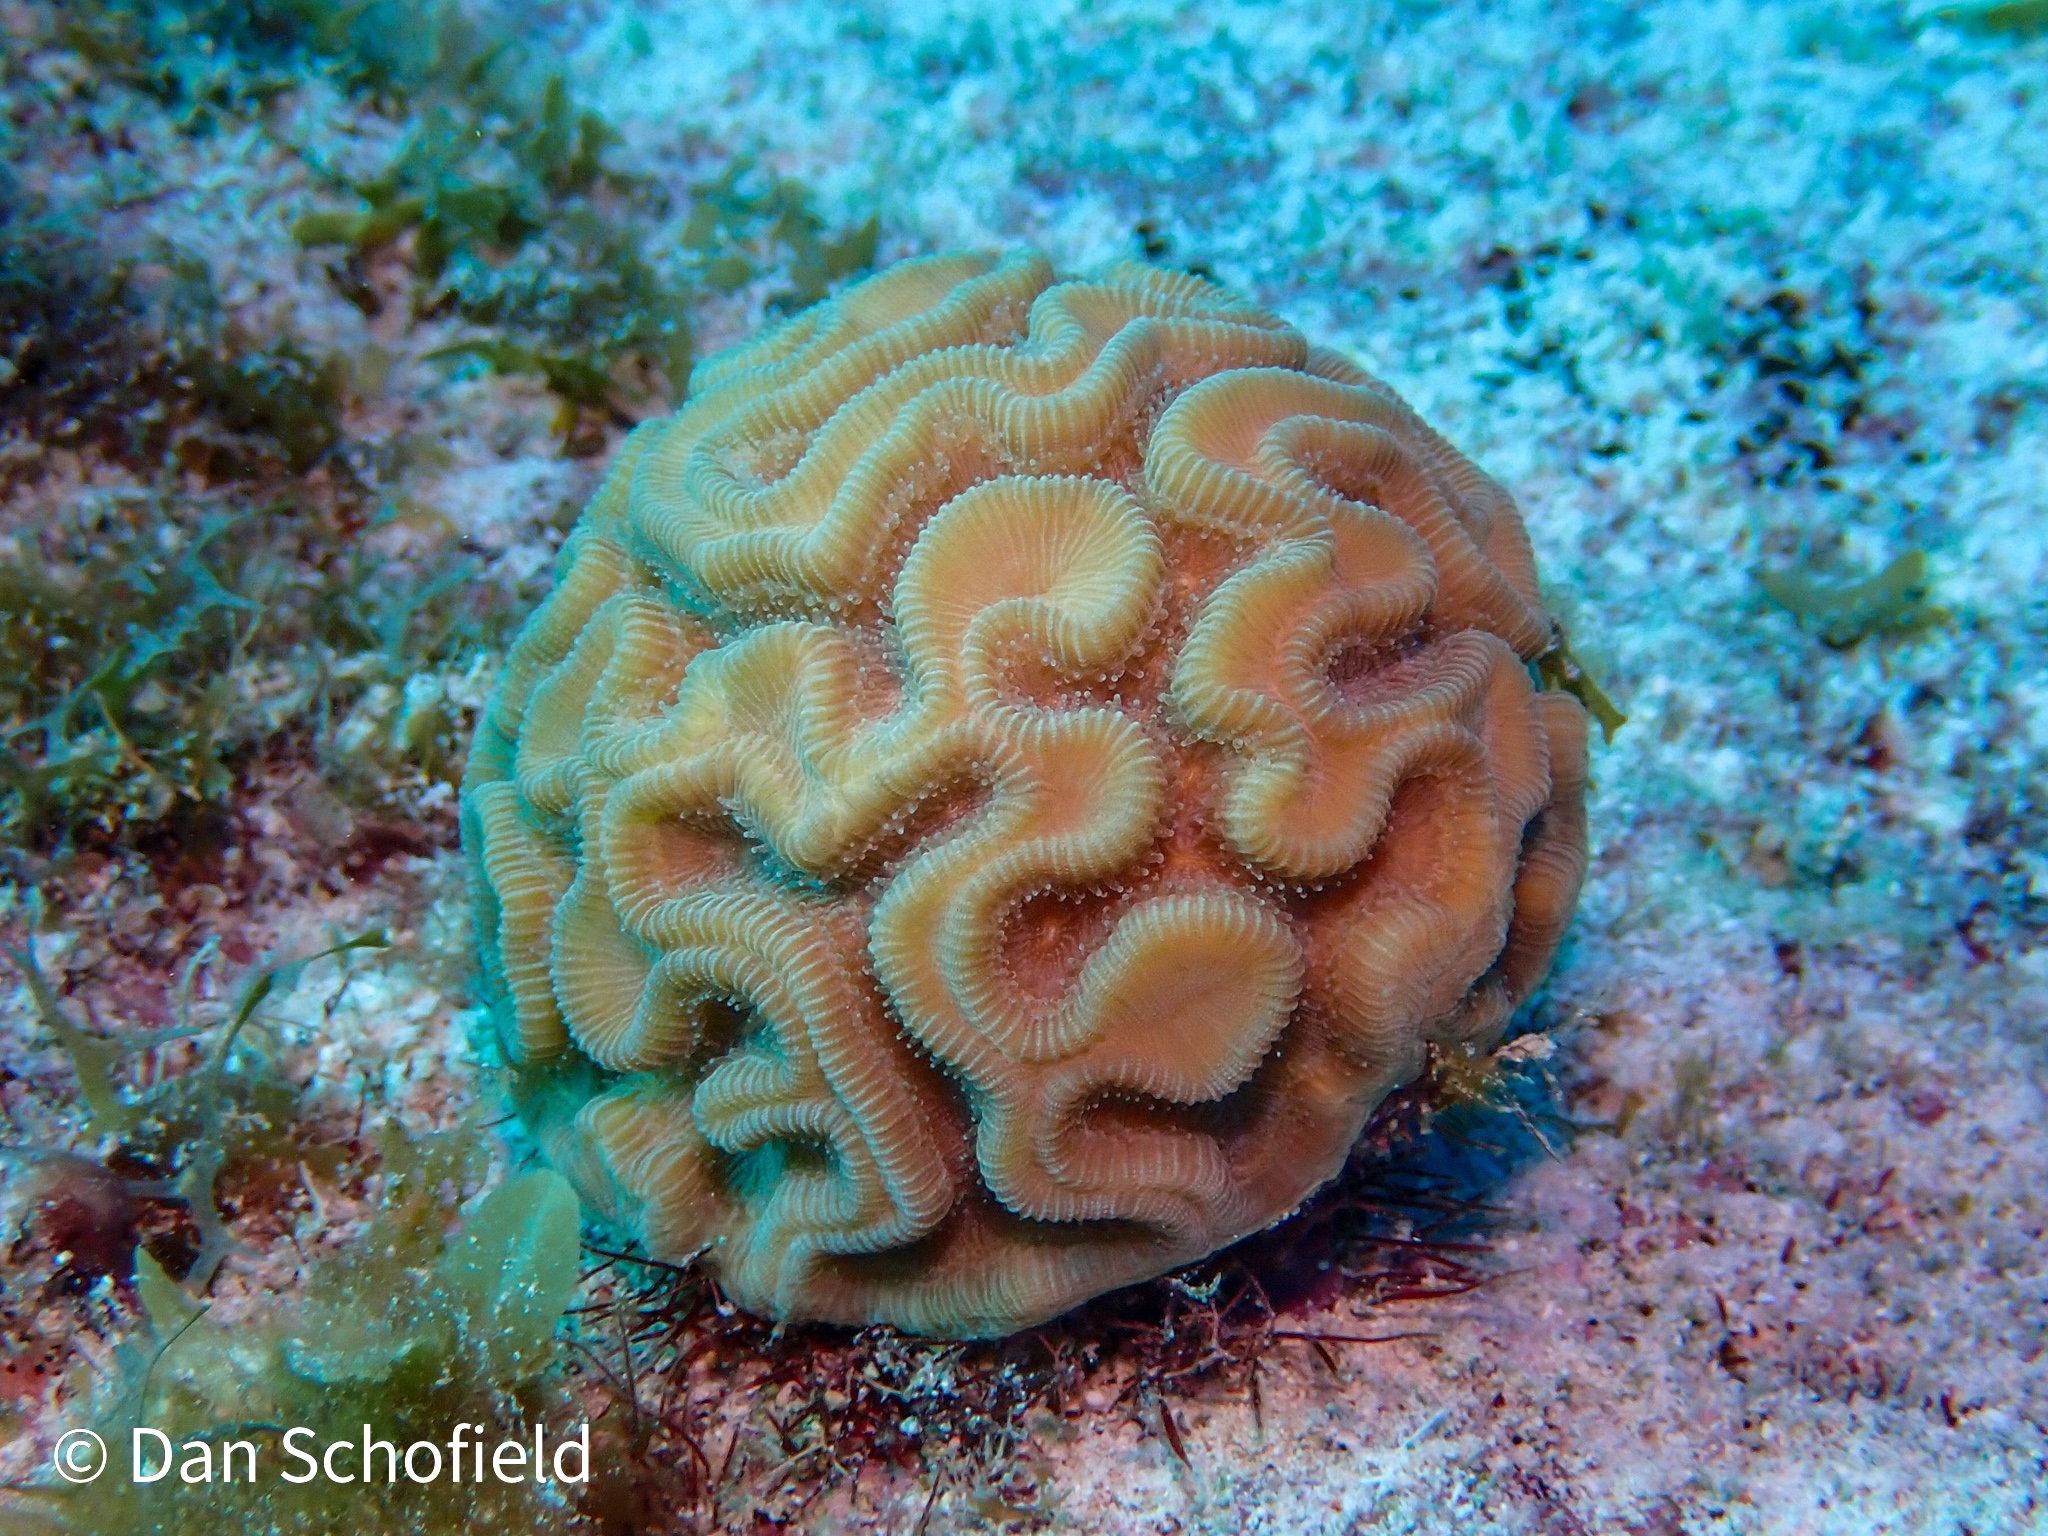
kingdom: Animalia
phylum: Cnidaria
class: Anthozoa
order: Scleractinia
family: Faviidae
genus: Diploria
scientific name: Diploria labyrinthiformis
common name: Grooved brain coral
